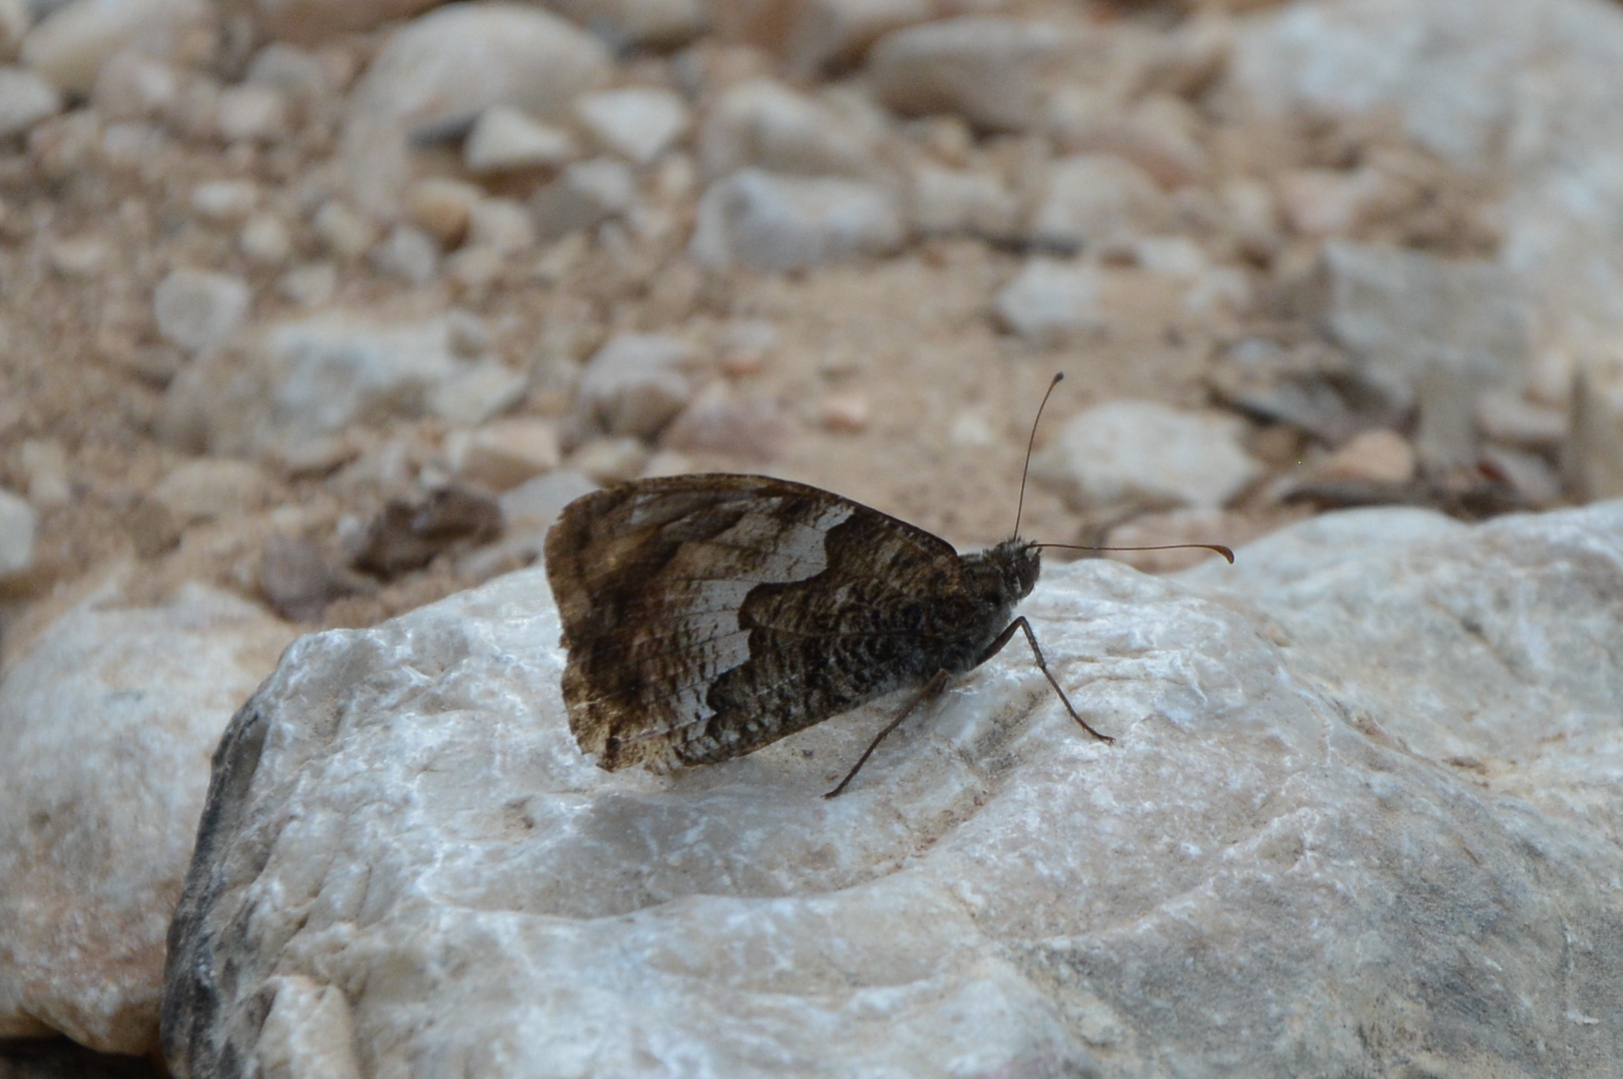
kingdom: Animalia
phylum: Arthropoda
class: Insecta
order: Lepidoptera
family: Nymphalidae
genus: Hipparchia
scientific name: Hipparchia semele
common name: Grayling
